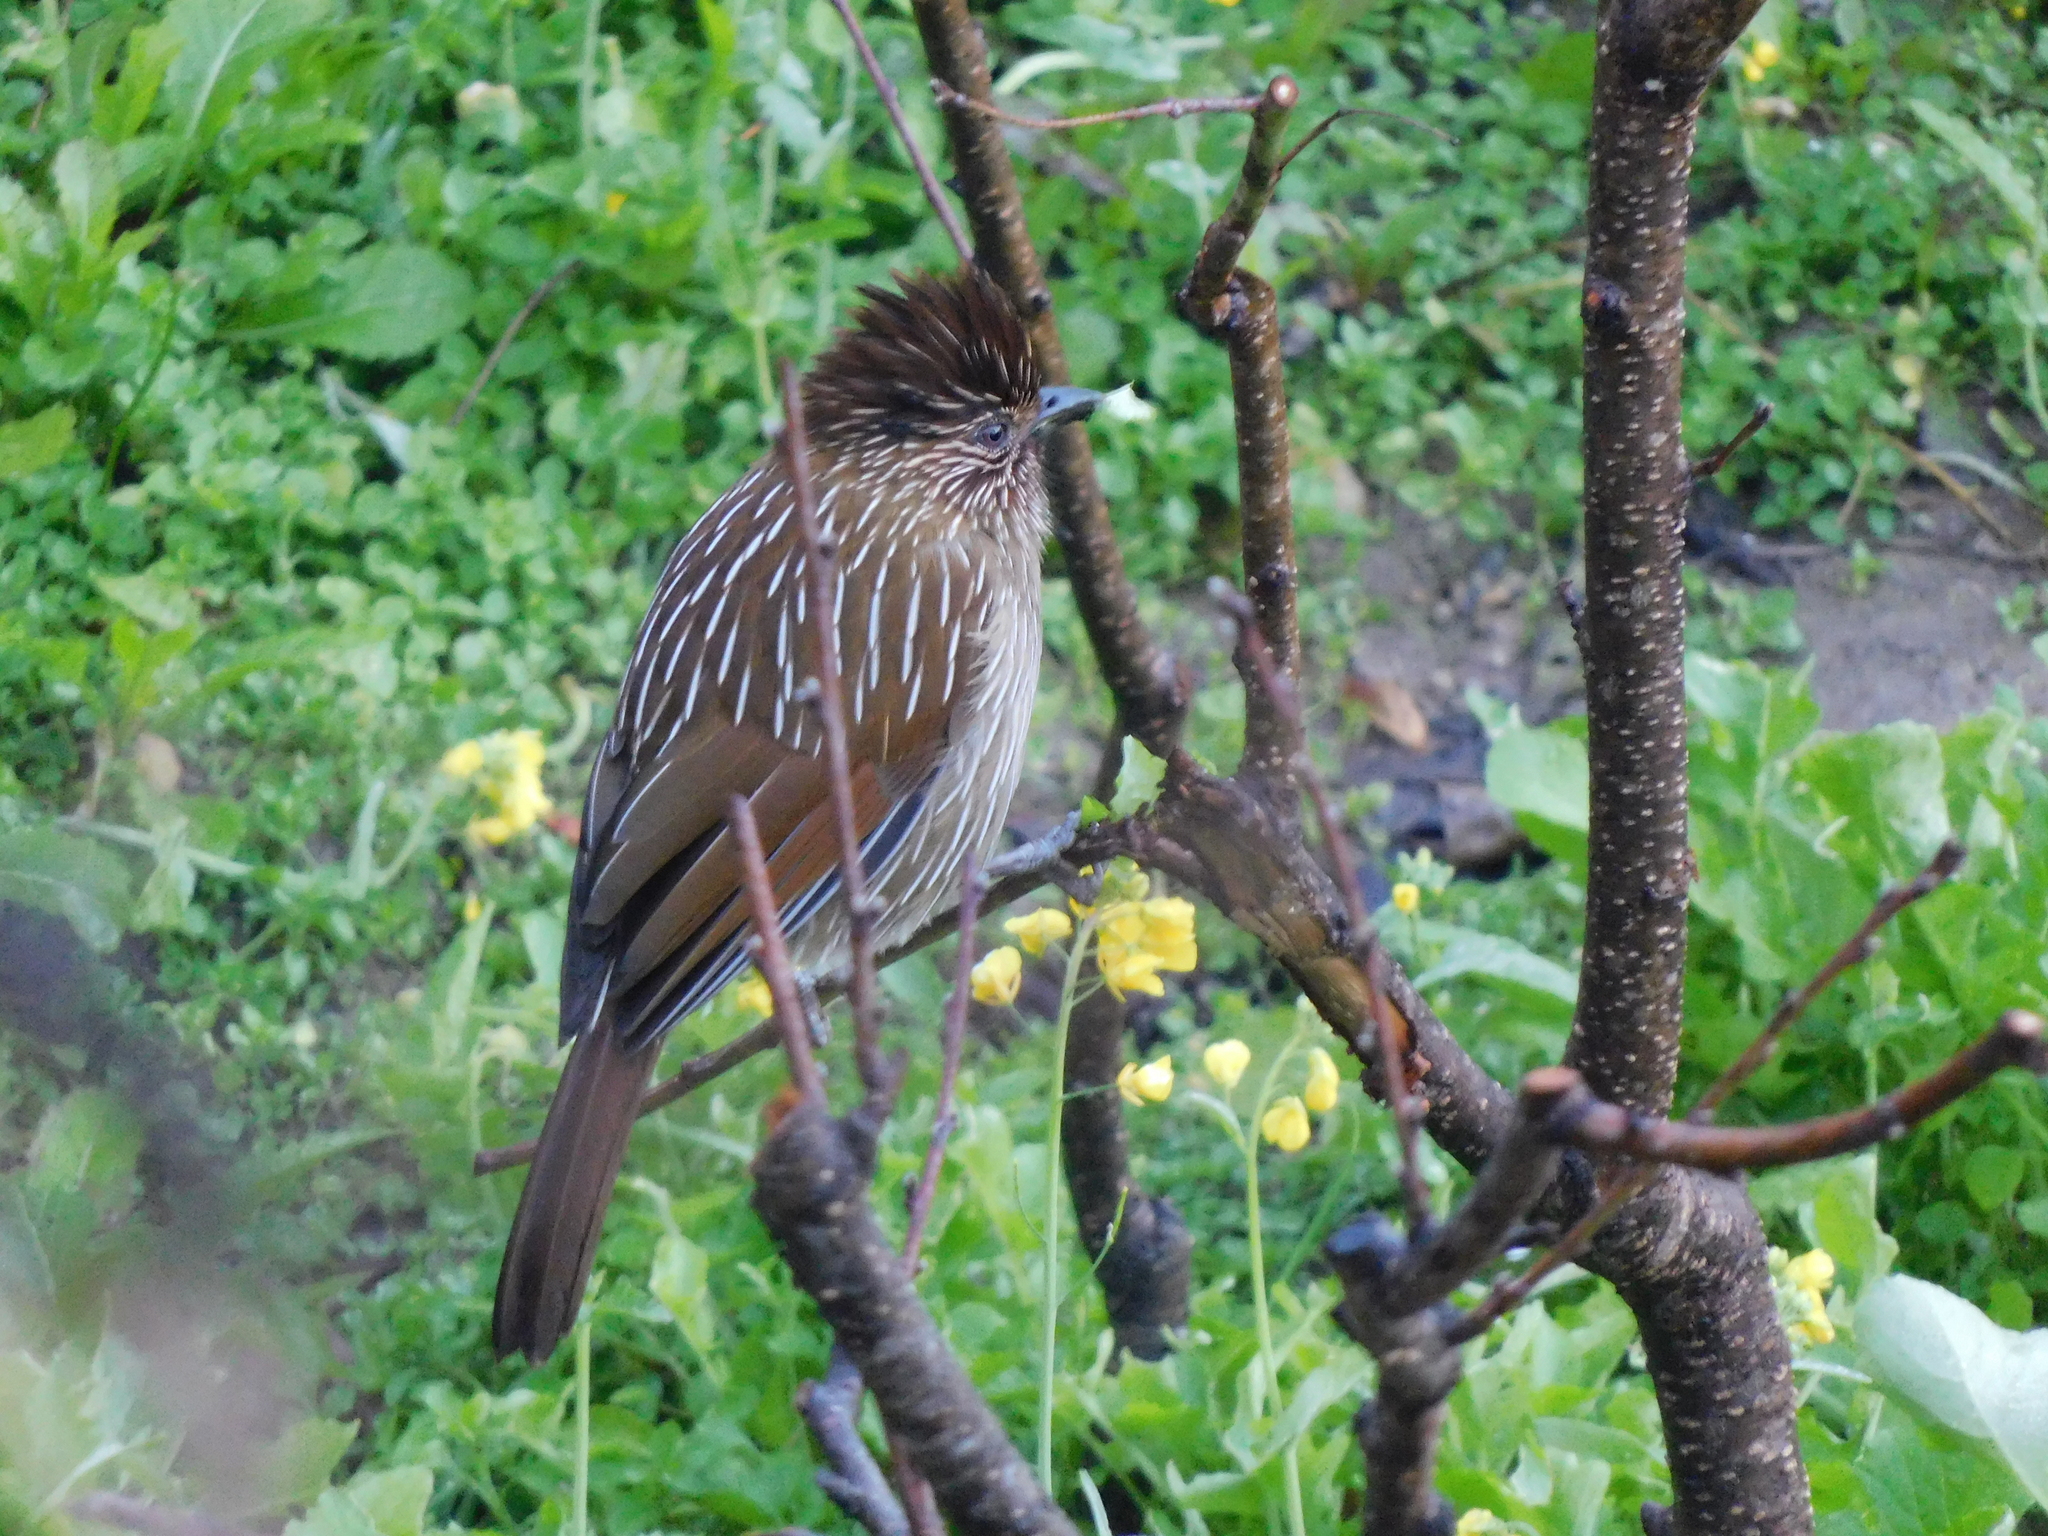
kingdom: Animalia
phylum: Chordata
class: Aves
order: Passeriformes
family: Leiothrichidae
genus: Garrulax
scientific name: Garrulax striatus
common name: Striated laughingthrush
